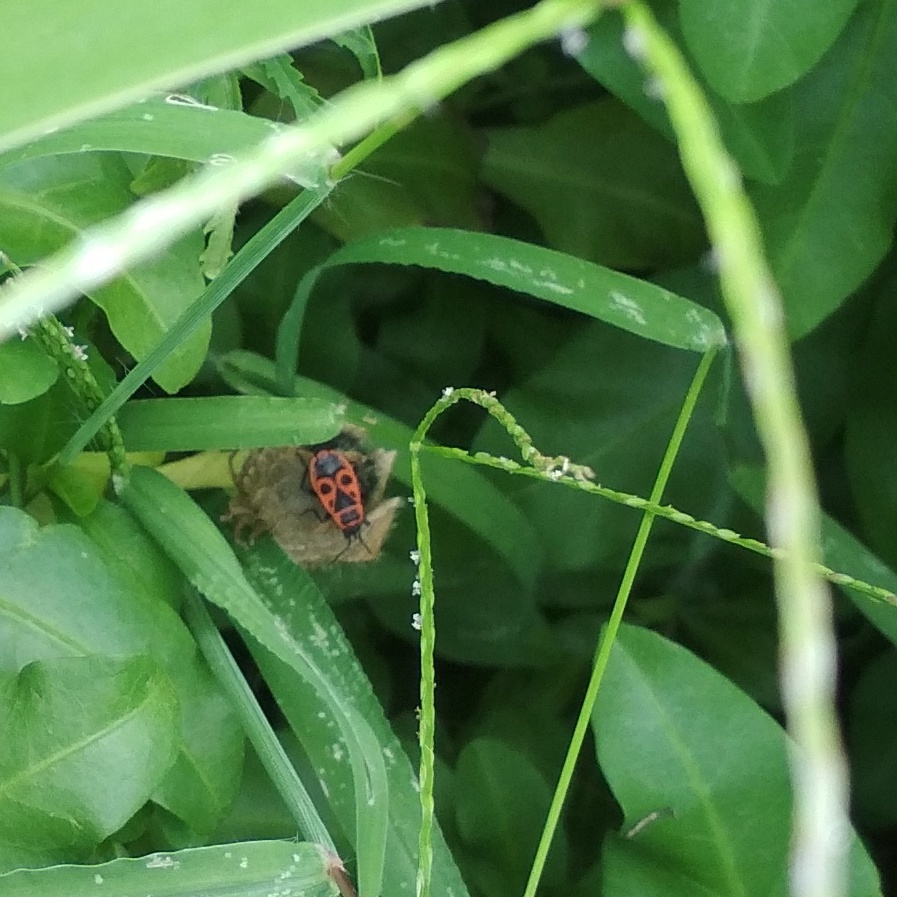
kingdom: Animalia
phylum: Arthropoda
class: Insecta
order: Hemiptera
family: Pyrrhocoridae
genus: Pyrrhocoris
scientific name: Pyrrhocoris apterus
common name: Firebug
